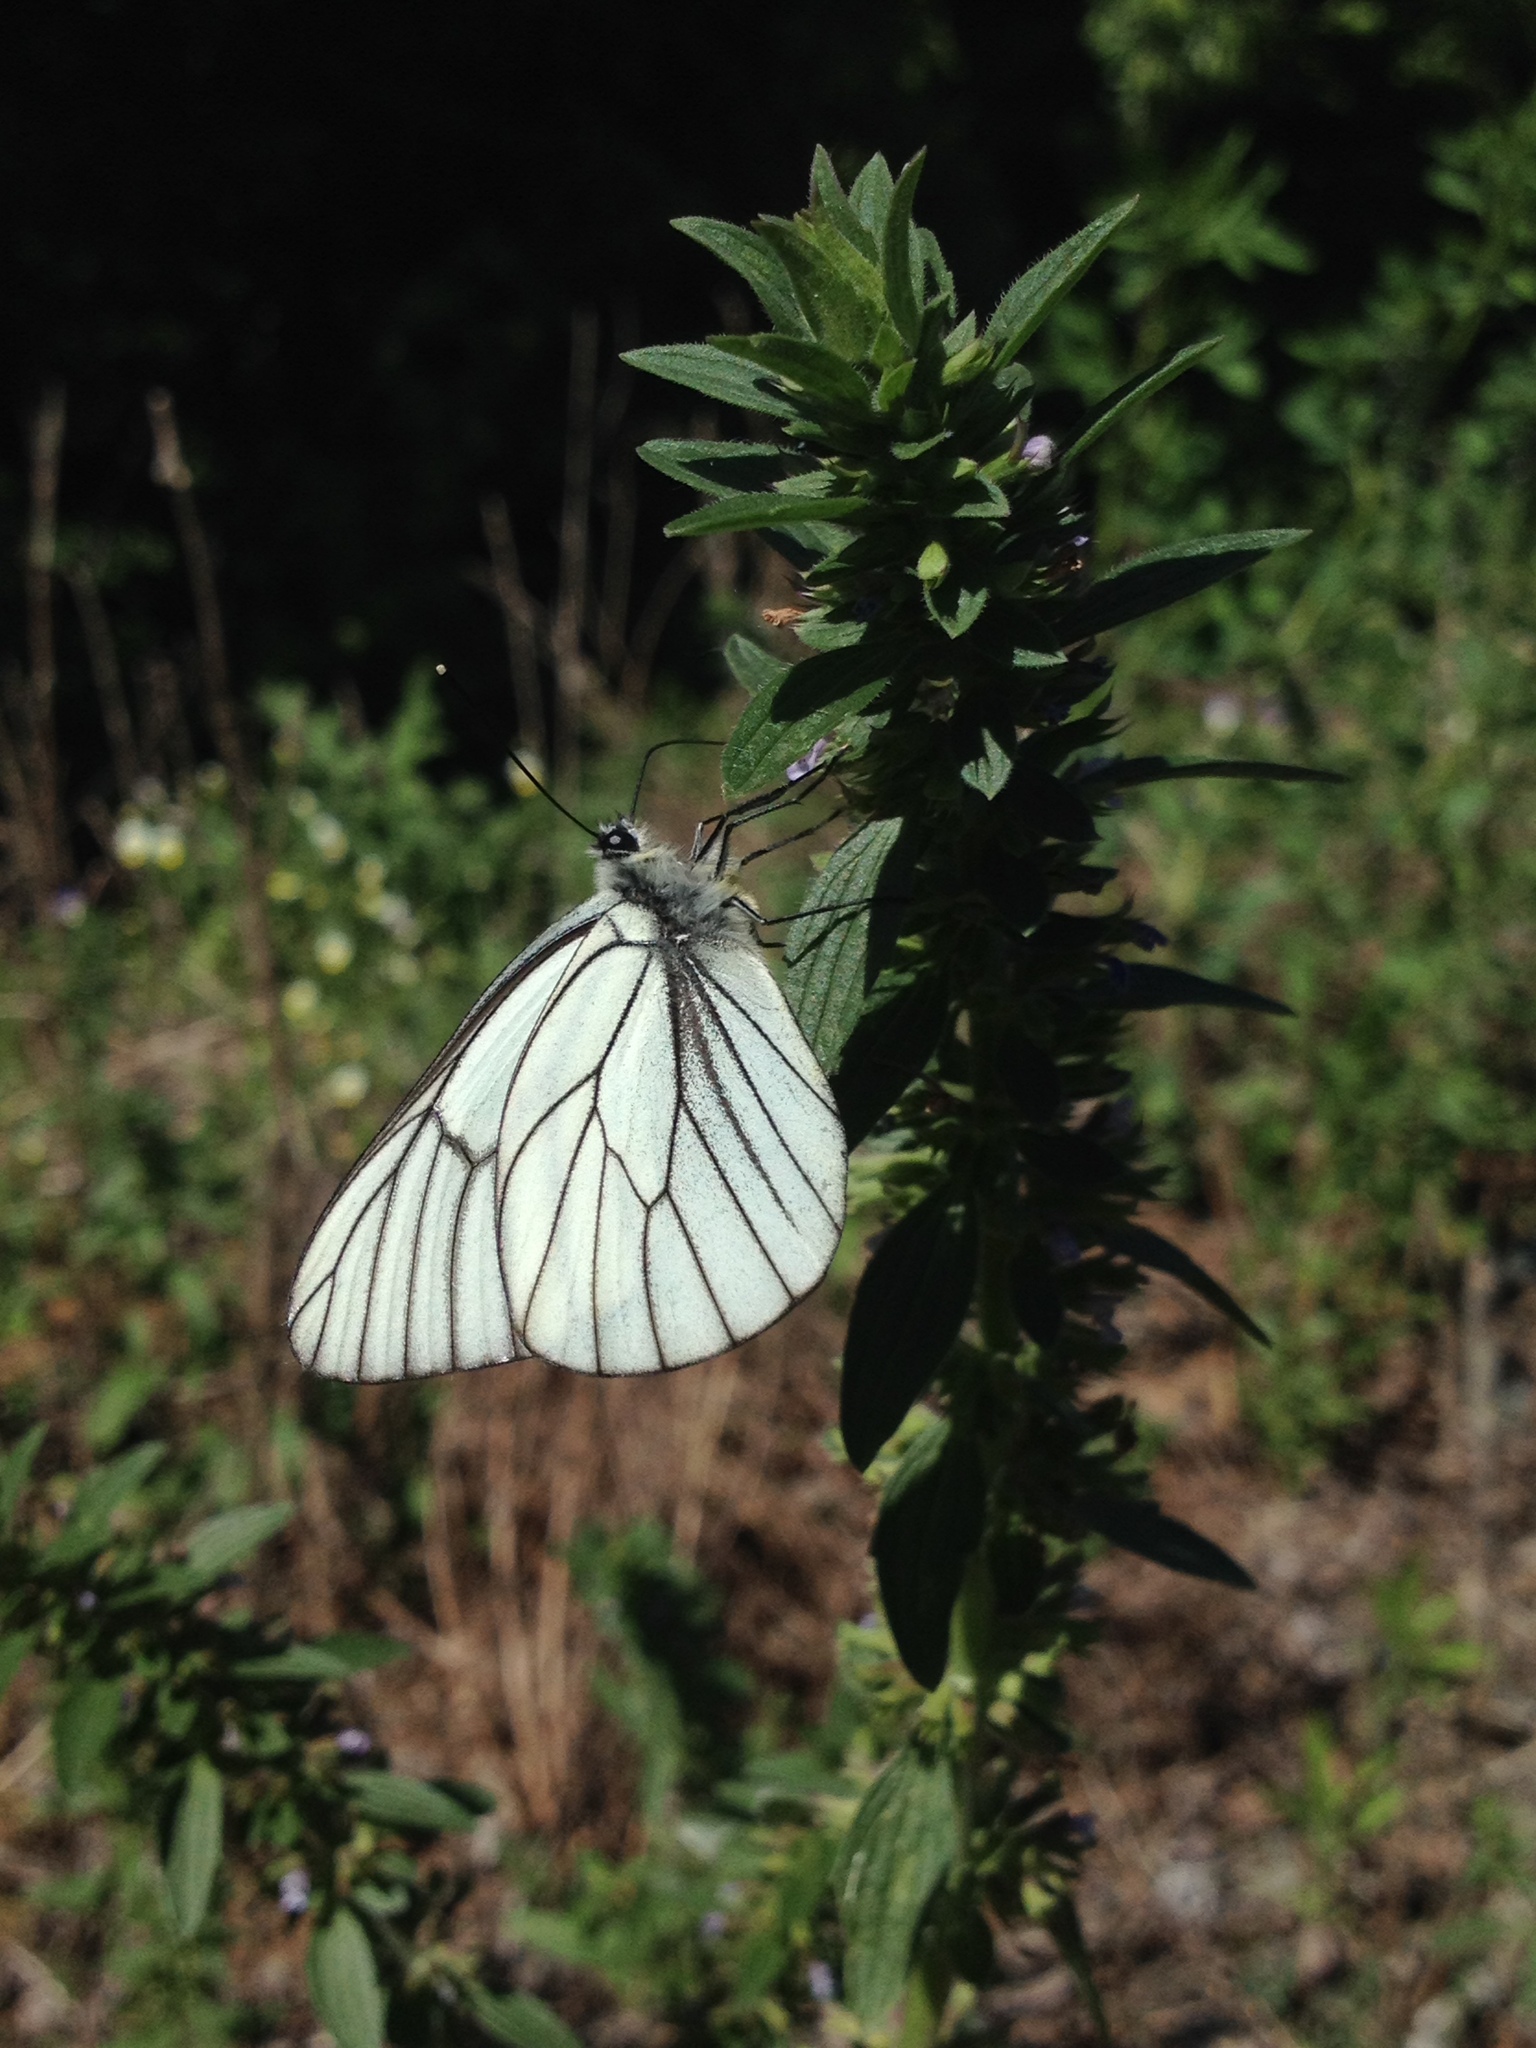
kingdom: Animalia
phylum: Arthropoda
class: Insecta
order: Lepidoptera
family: Pieridae
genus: Aporia
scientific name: Aporia crataegi
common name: Black-veined white
